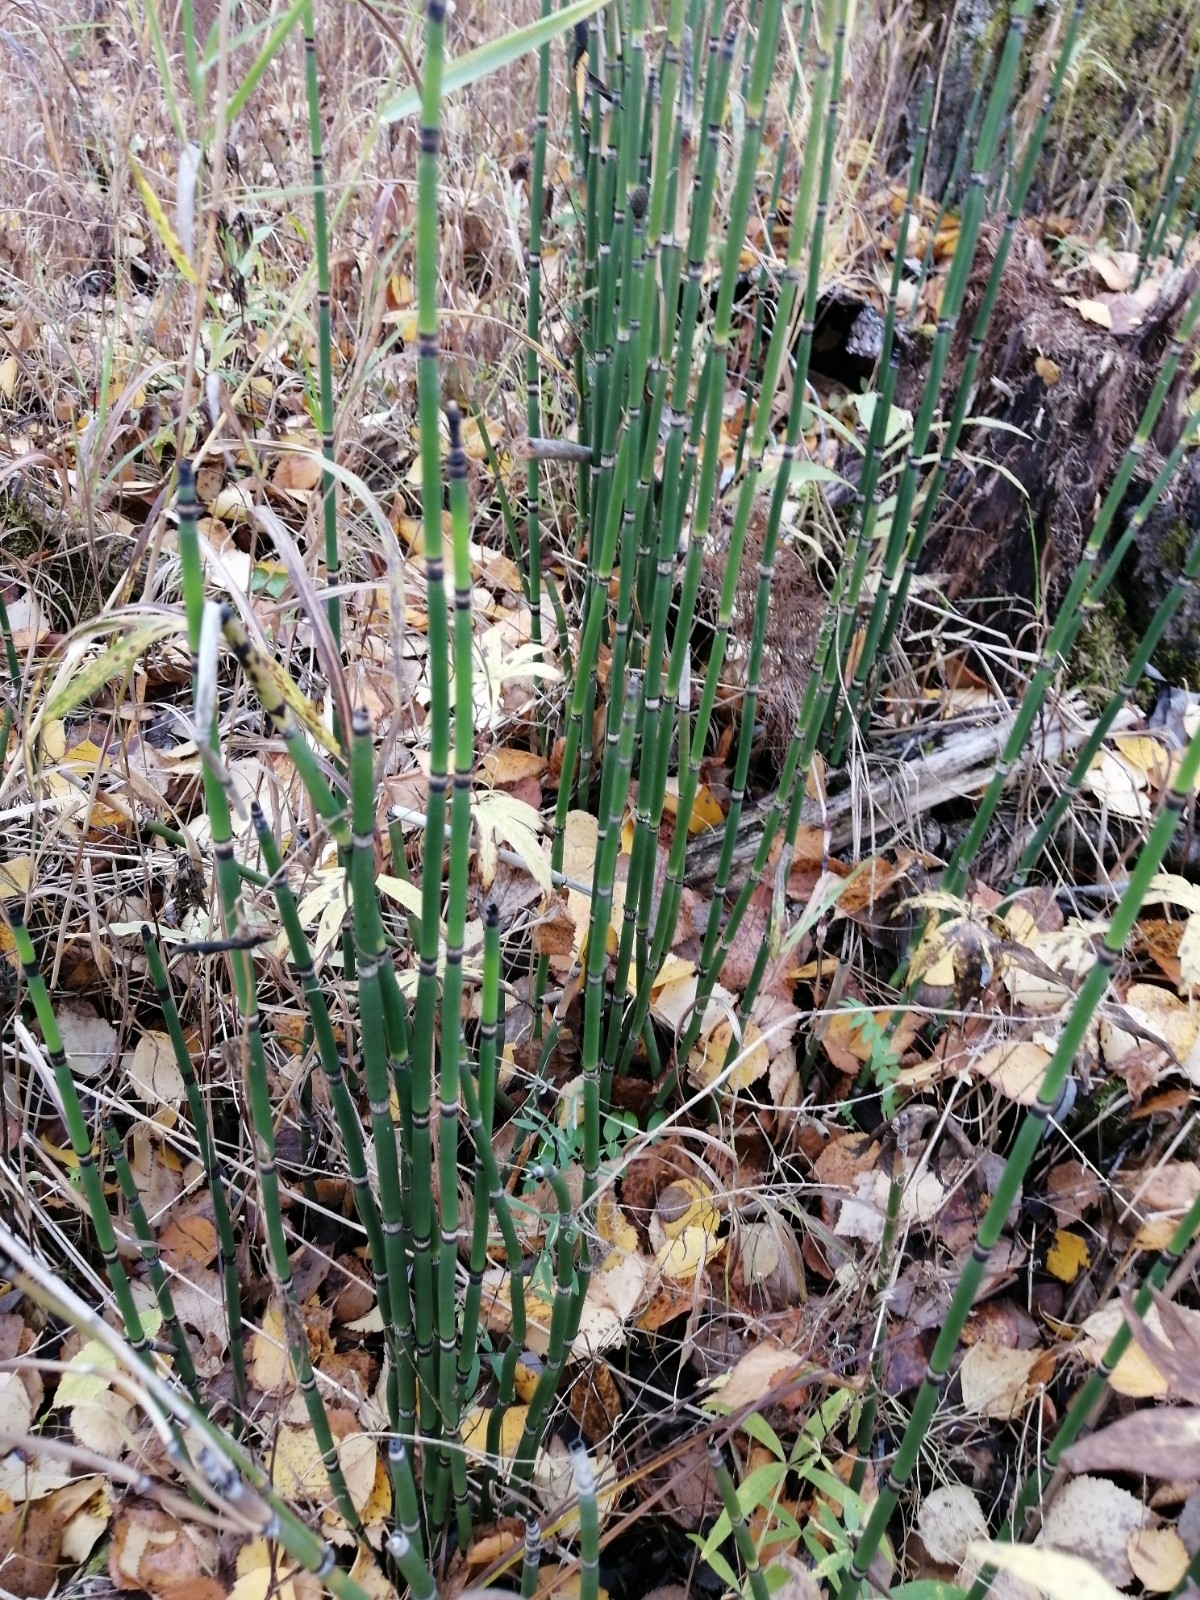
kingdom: Plantae
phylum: Tracheophyta
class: Polypodiopsida
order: Equisetales
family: Equisetaceae
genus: Equisetum
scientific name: Equisetum hyemale
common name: Rough horsetail
